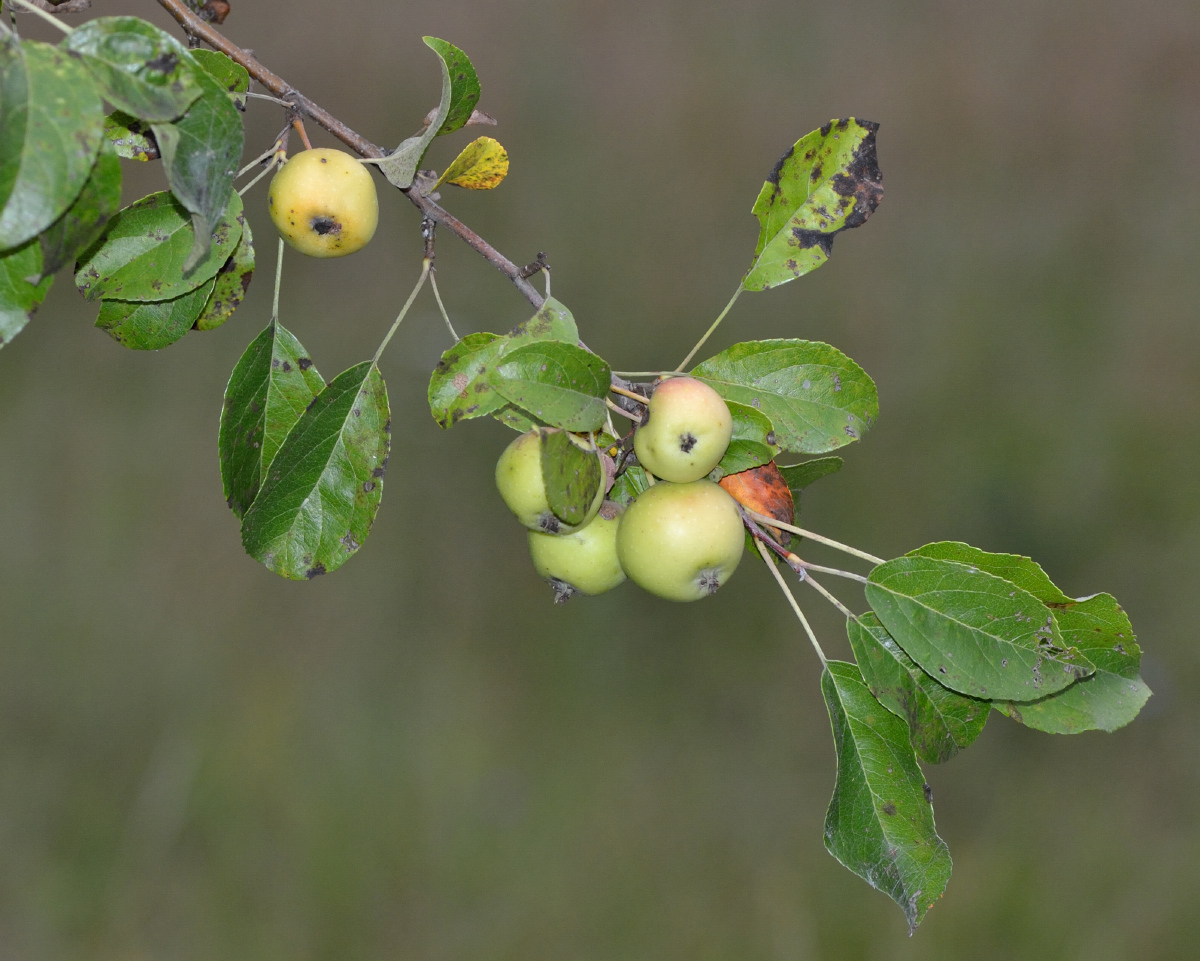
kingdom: Plantae
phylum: Tracheophyta
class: Magnoliopsida
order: Rosales
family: Rosaceae
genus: Malus
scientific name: Malus sylvestris
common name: Crab apple
